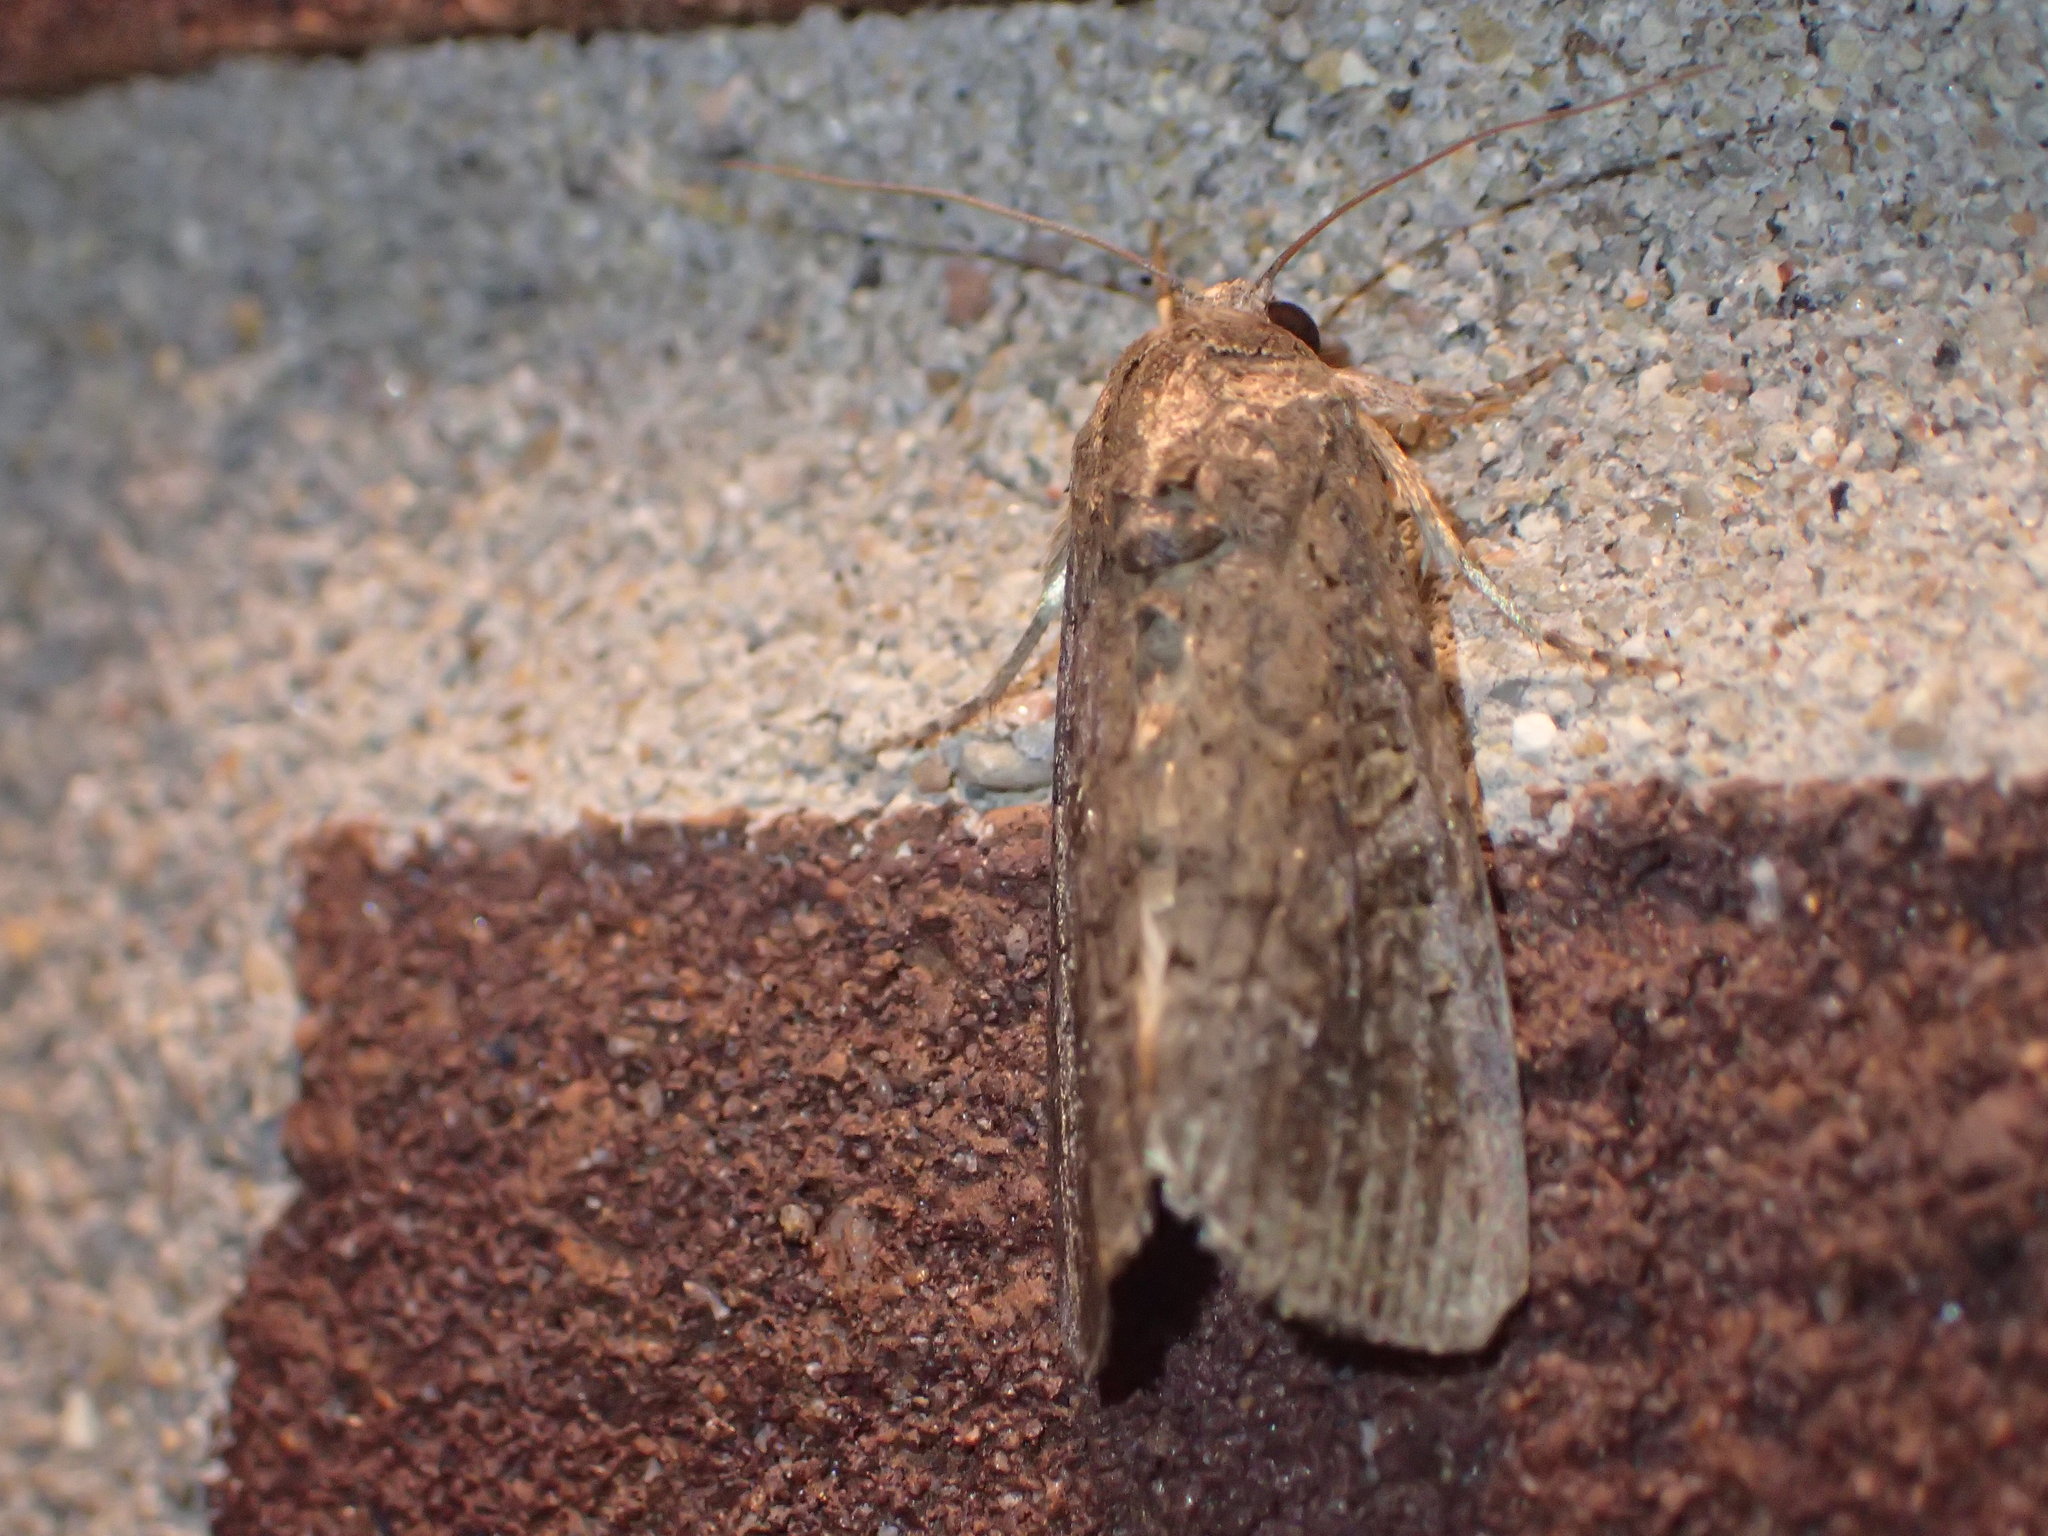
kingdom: Animalia
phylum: Arthropoda
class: Insecta
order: Lepidoptera
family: Noctuidae
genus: Spodoptera
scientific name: Spodoptera frugiperda
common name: Fall armyworm
